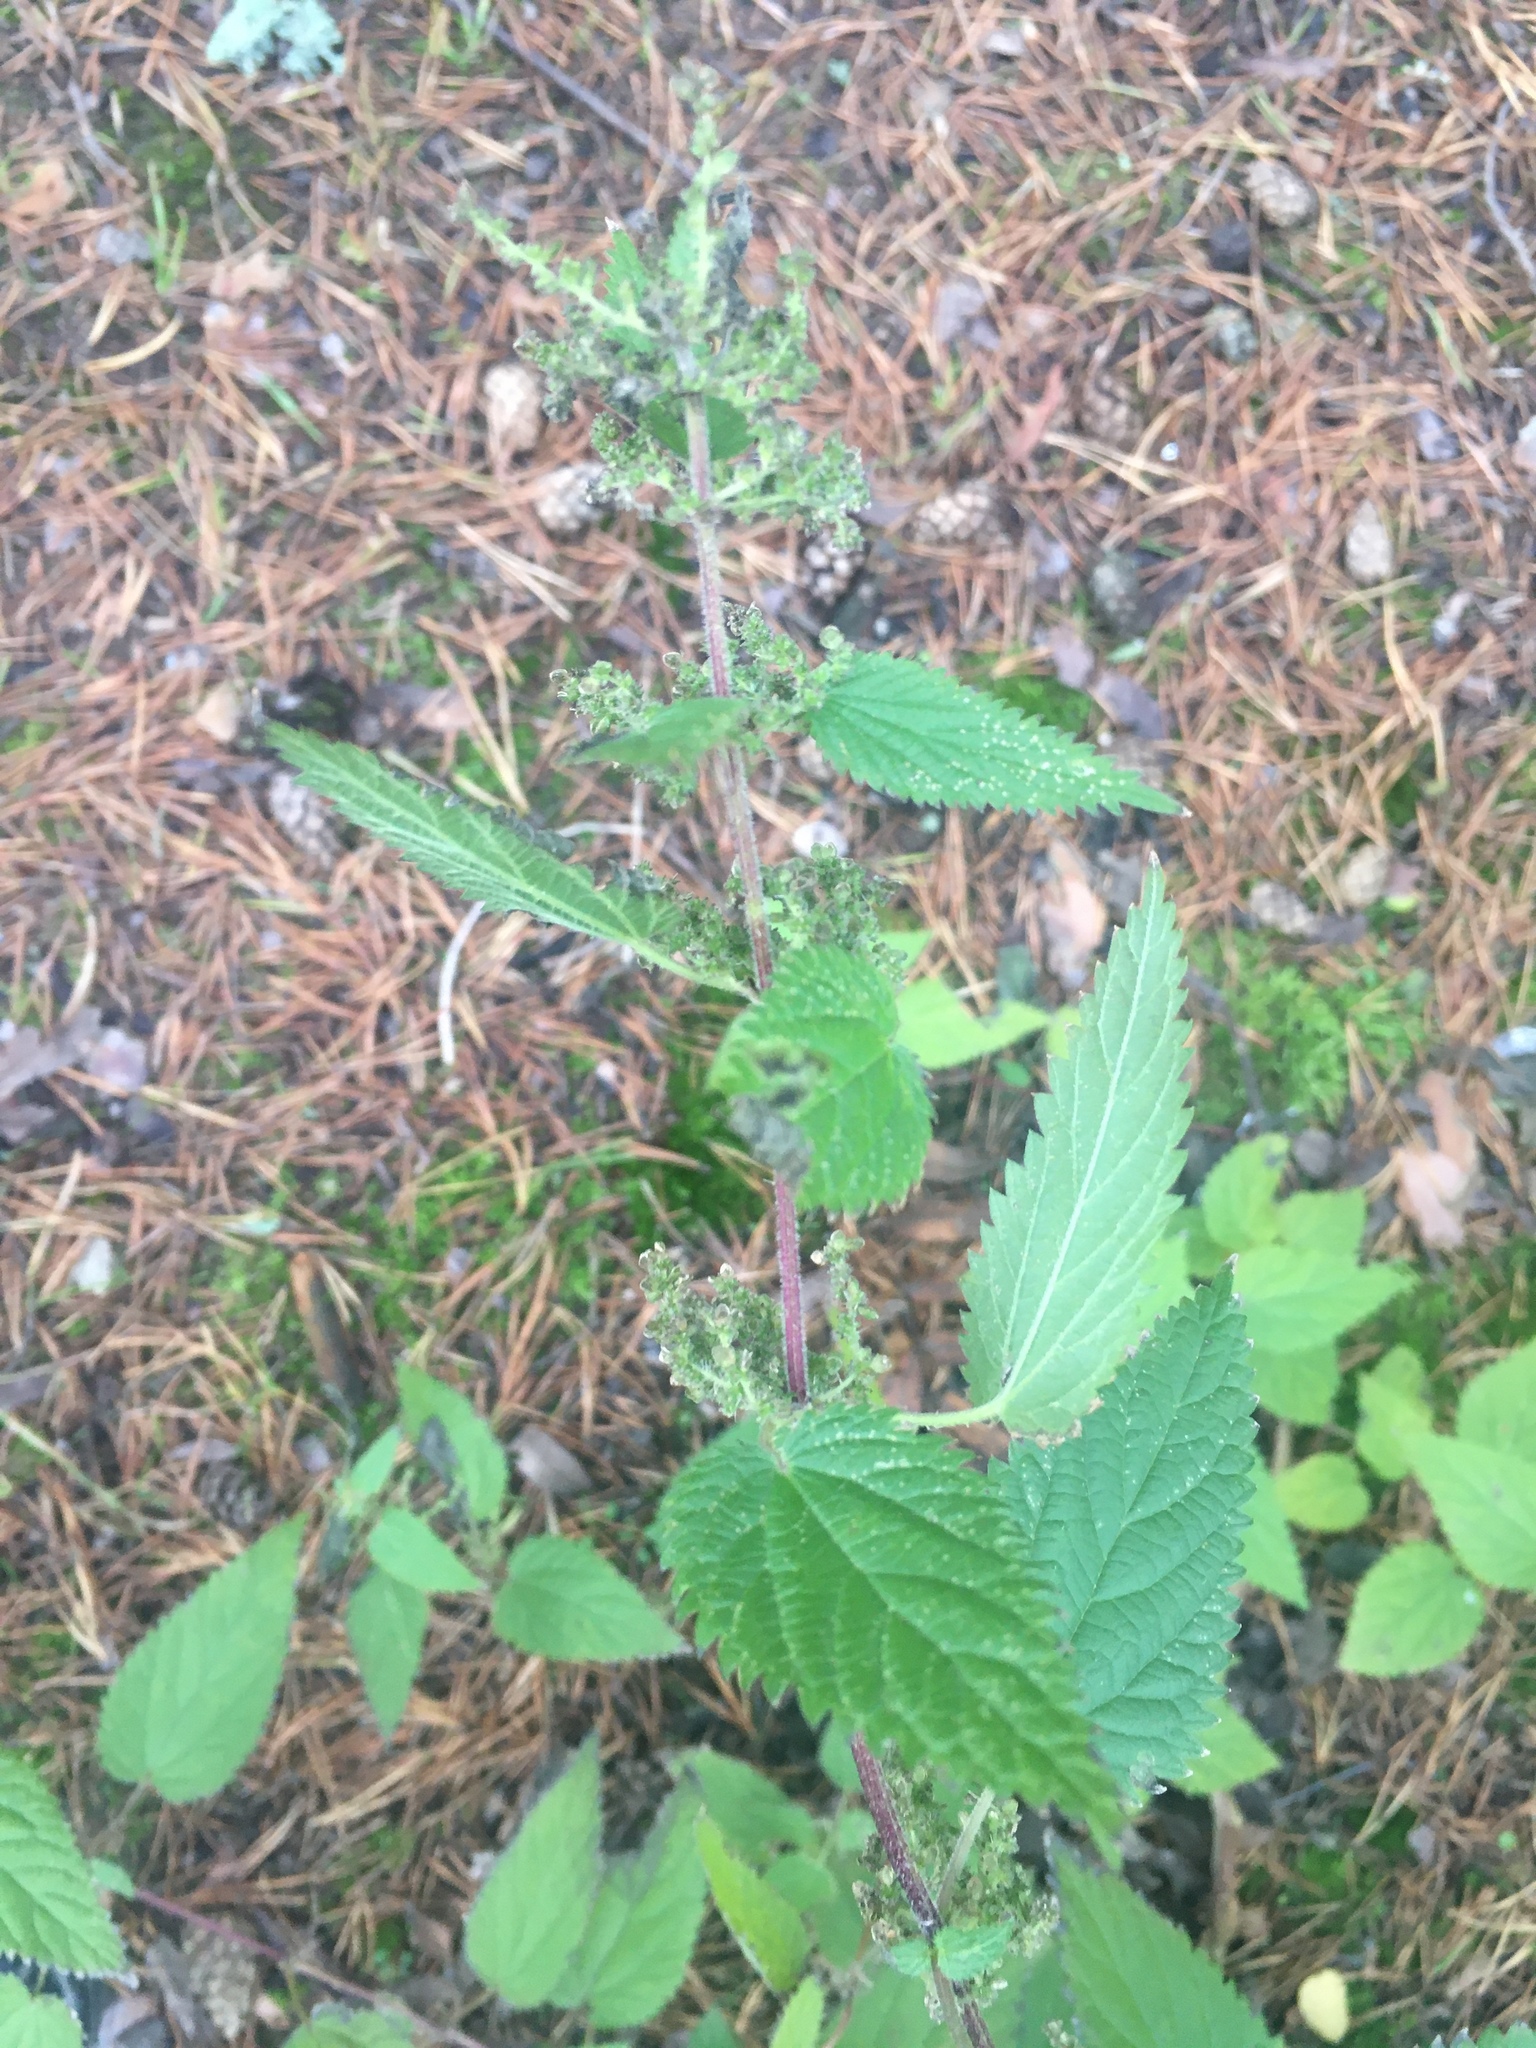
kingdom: Plantae
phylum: Tracheophyta
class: Magnoliopsida
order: Rosales
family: Urticaceae
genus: Urtica
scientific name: Urtica dioica
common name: Common nettle
